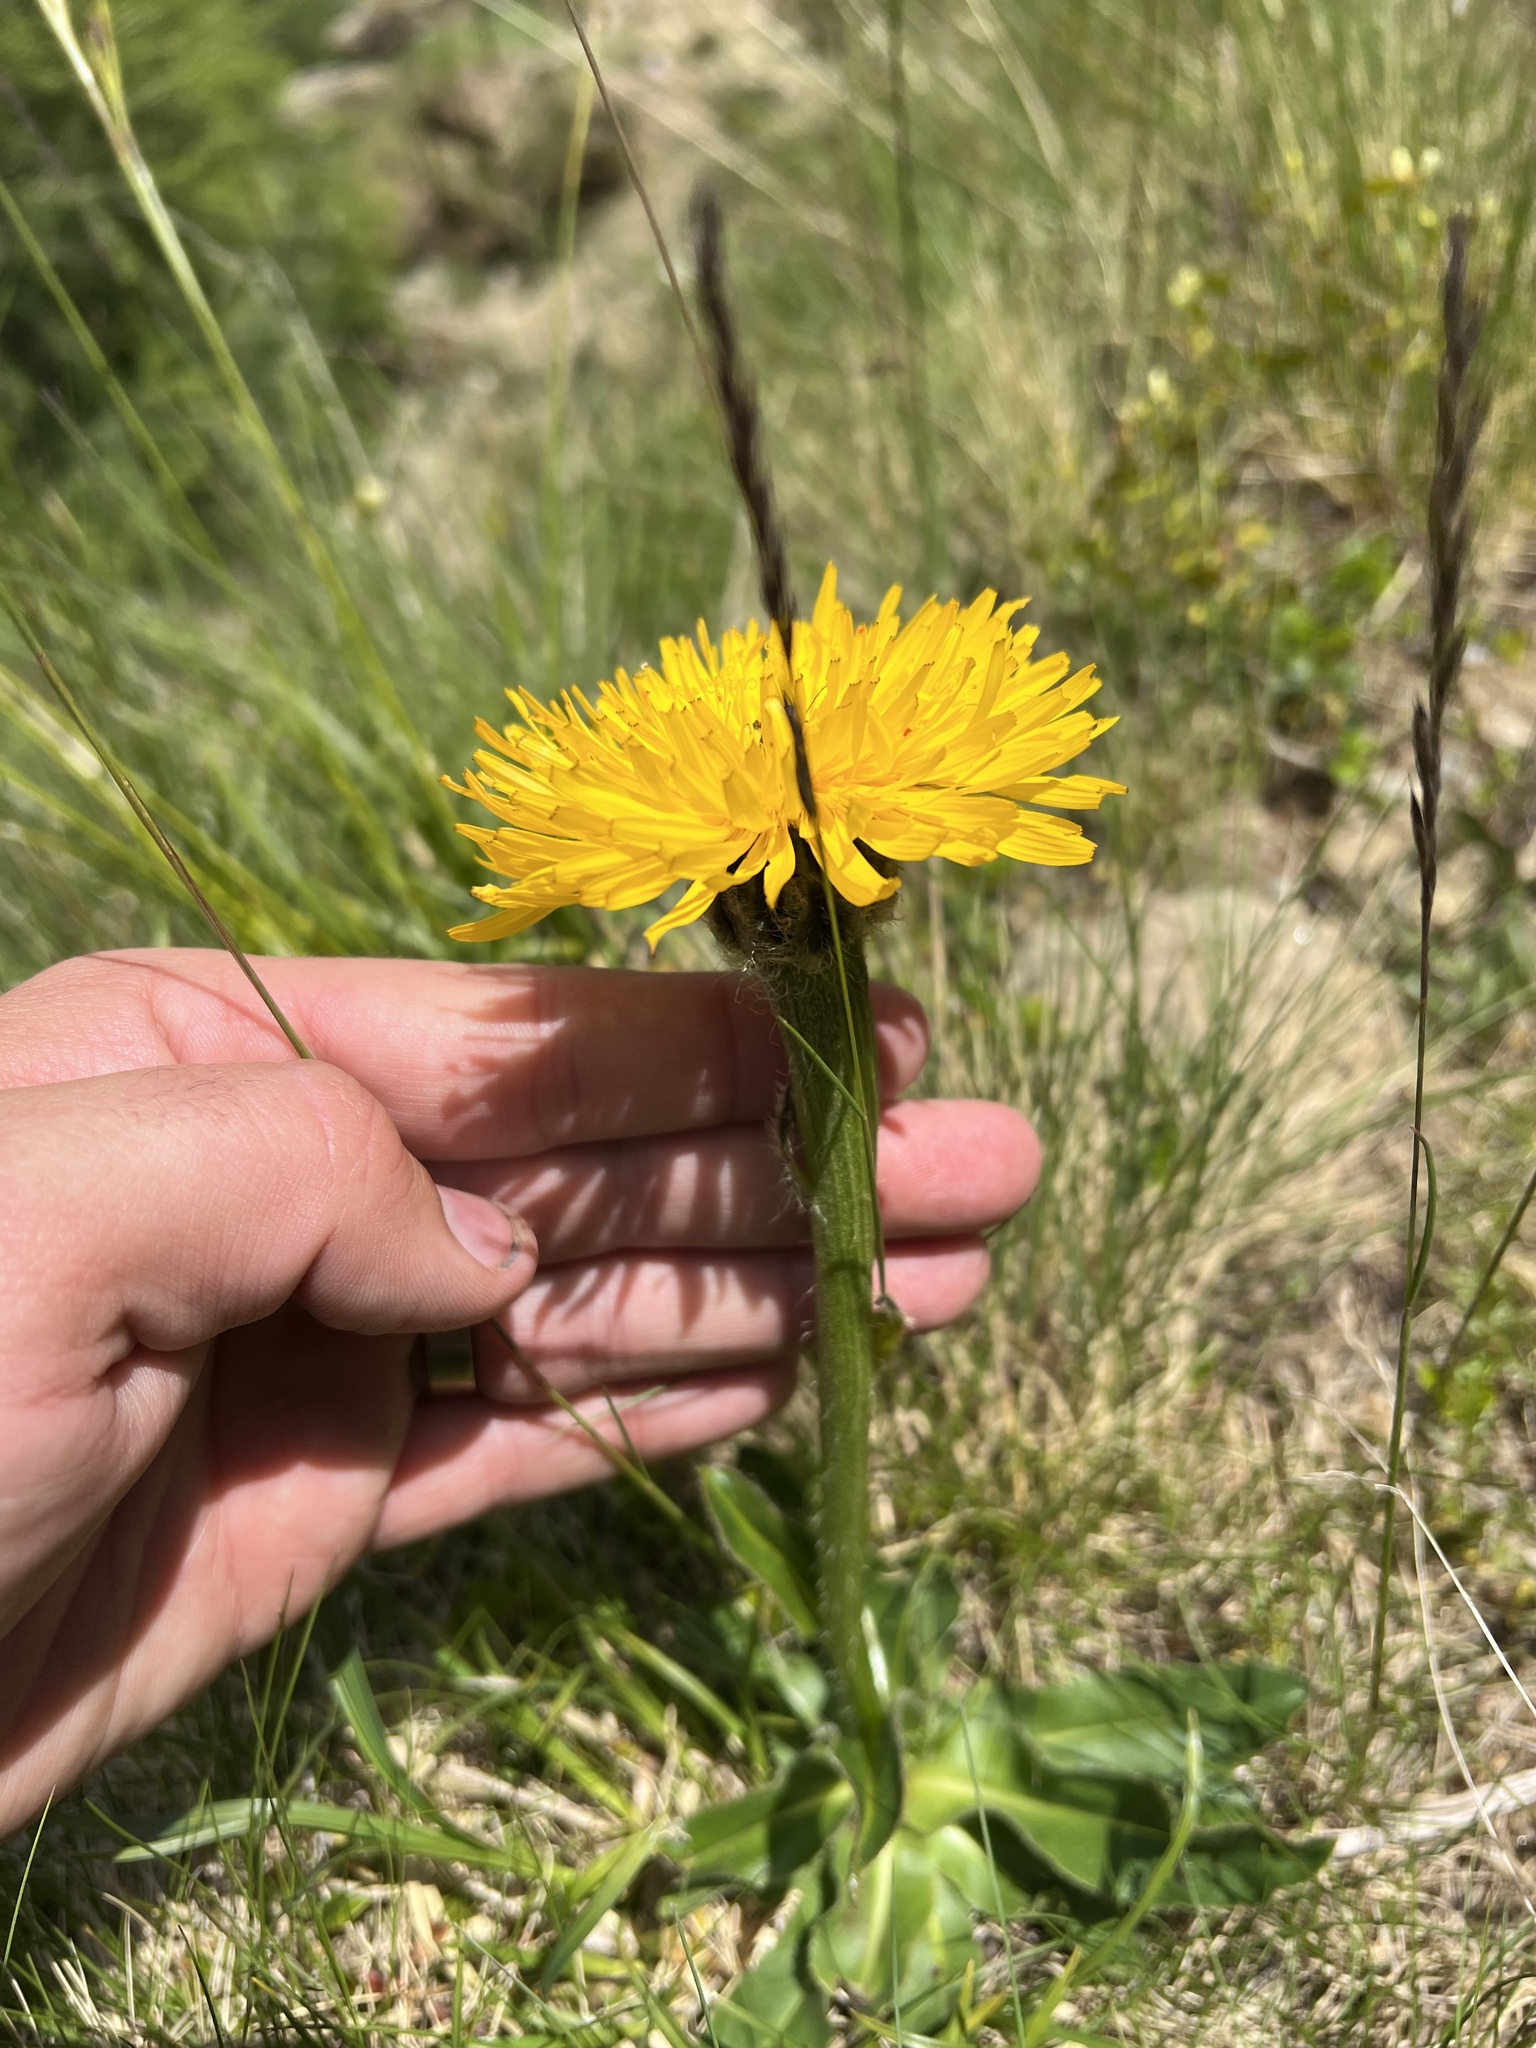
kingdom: Plantae
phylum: Tracheophyta
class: Magnoliopsida
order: Asterales
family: Asteraceae
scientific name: Asteraceae
